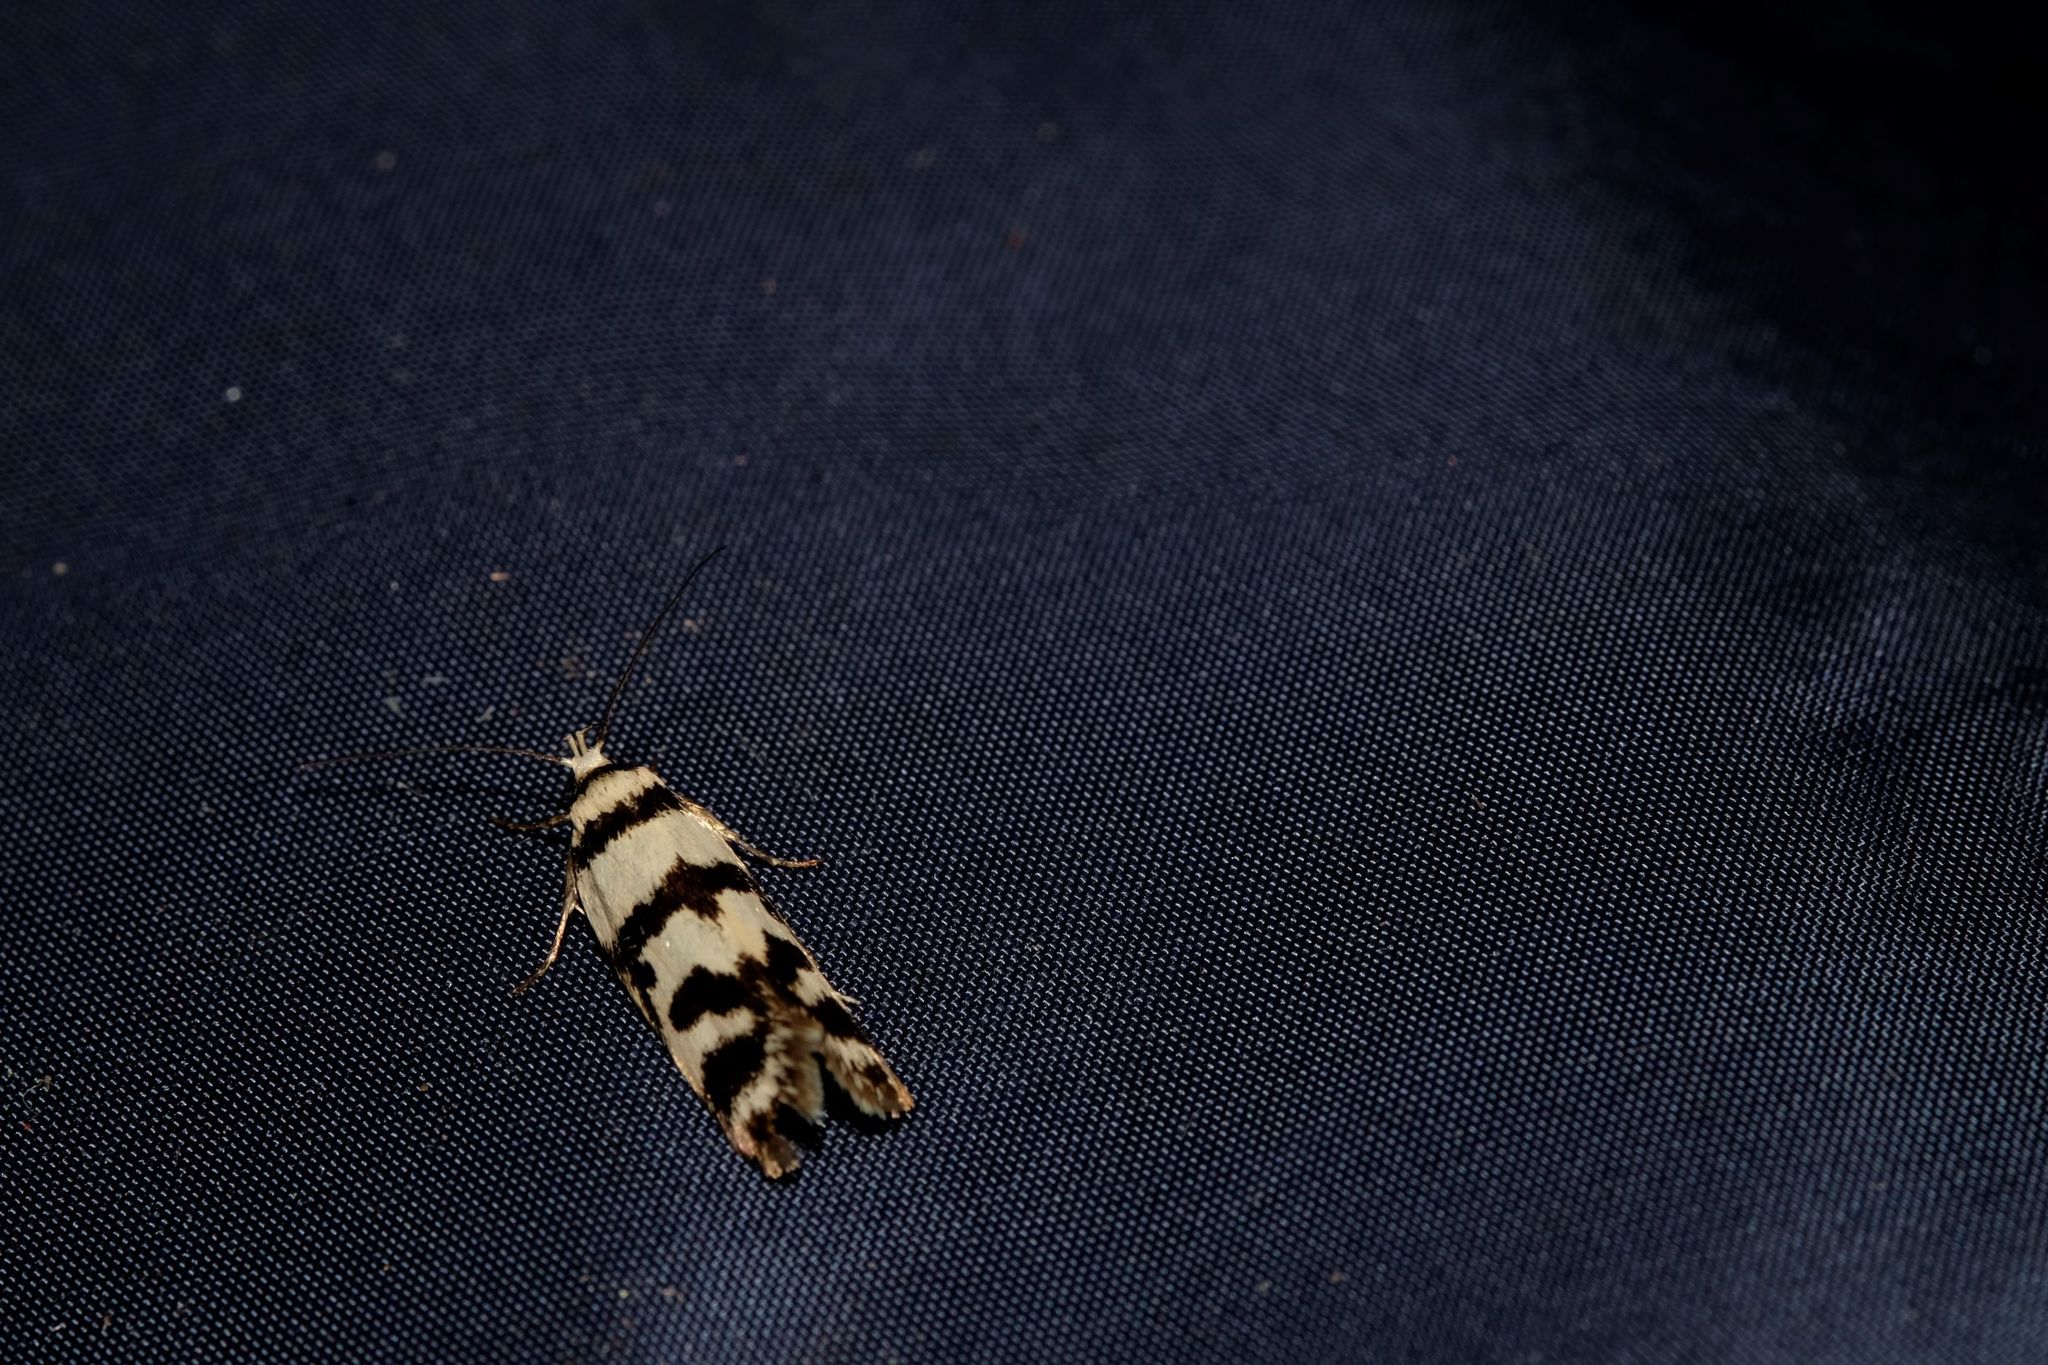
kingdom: Animalia
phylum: Arthropoda
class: Insecta
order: Lepidoptera
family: Oecophoridae
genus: Philobota
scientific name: Philobota impletella
